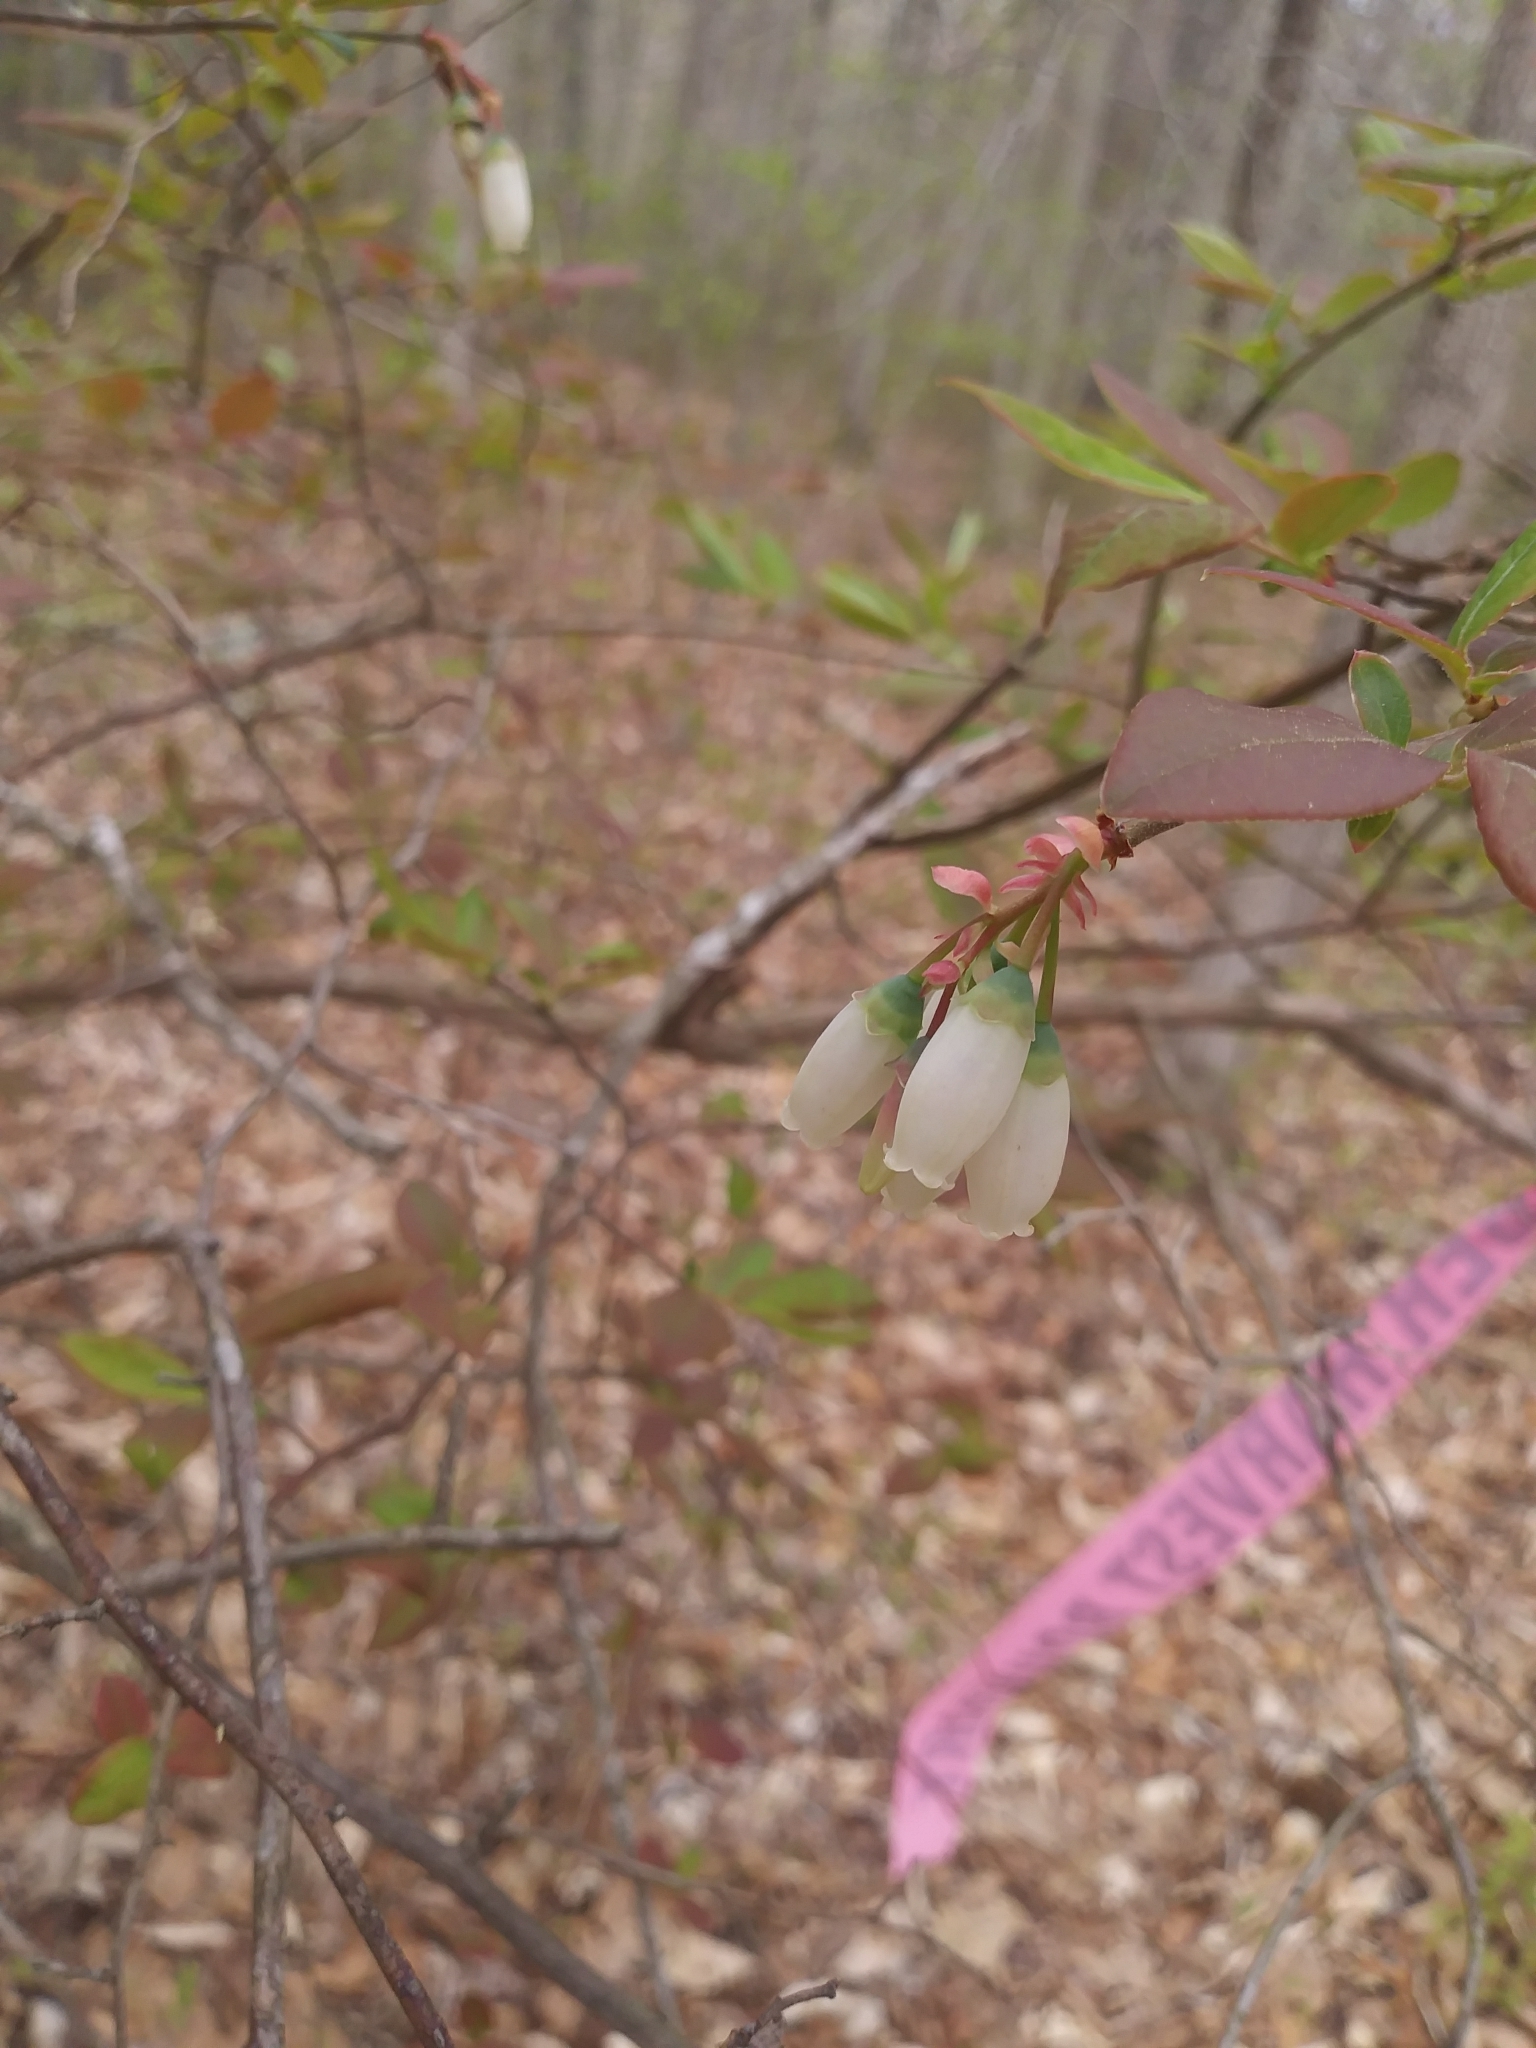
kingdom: Plantae
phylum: Tracheophyta
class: Magnoliopsida
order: Ericales
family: Ericaceae
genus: Vaccinium
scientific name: Vaccinium corymbosum
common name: Blueberry
